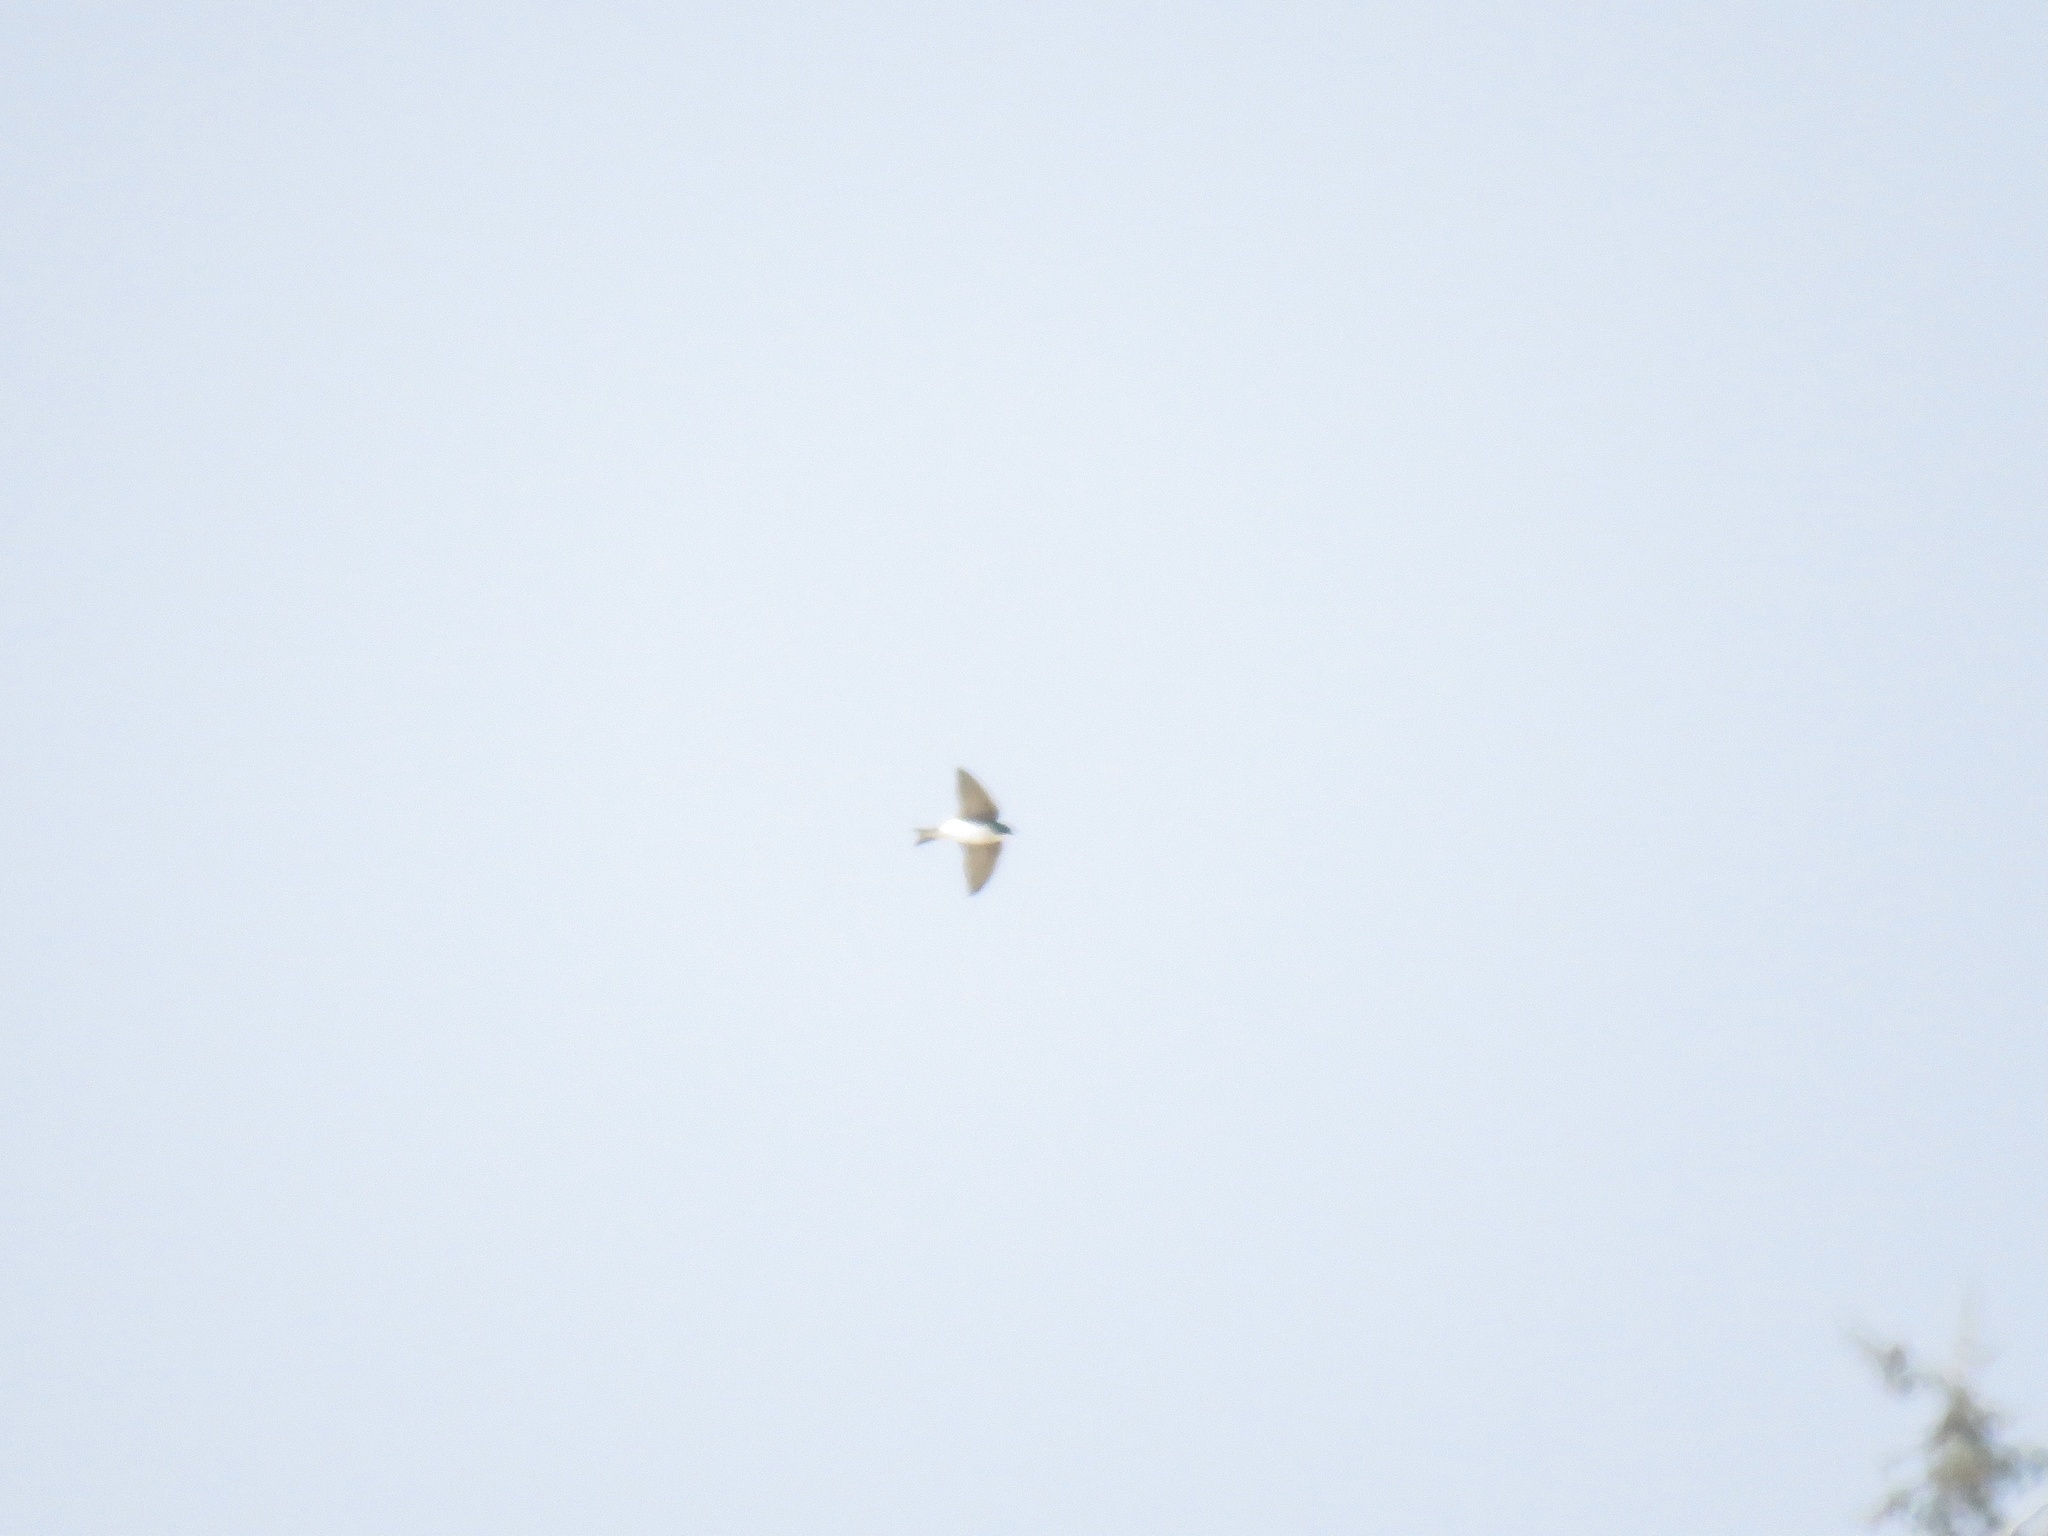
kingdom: Animalia
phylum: Chordata
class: Aves
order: Passeriformes
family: Hirundinidae
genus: Tachycineta
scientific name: Tachycineta bicolor
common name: Tree swallow
